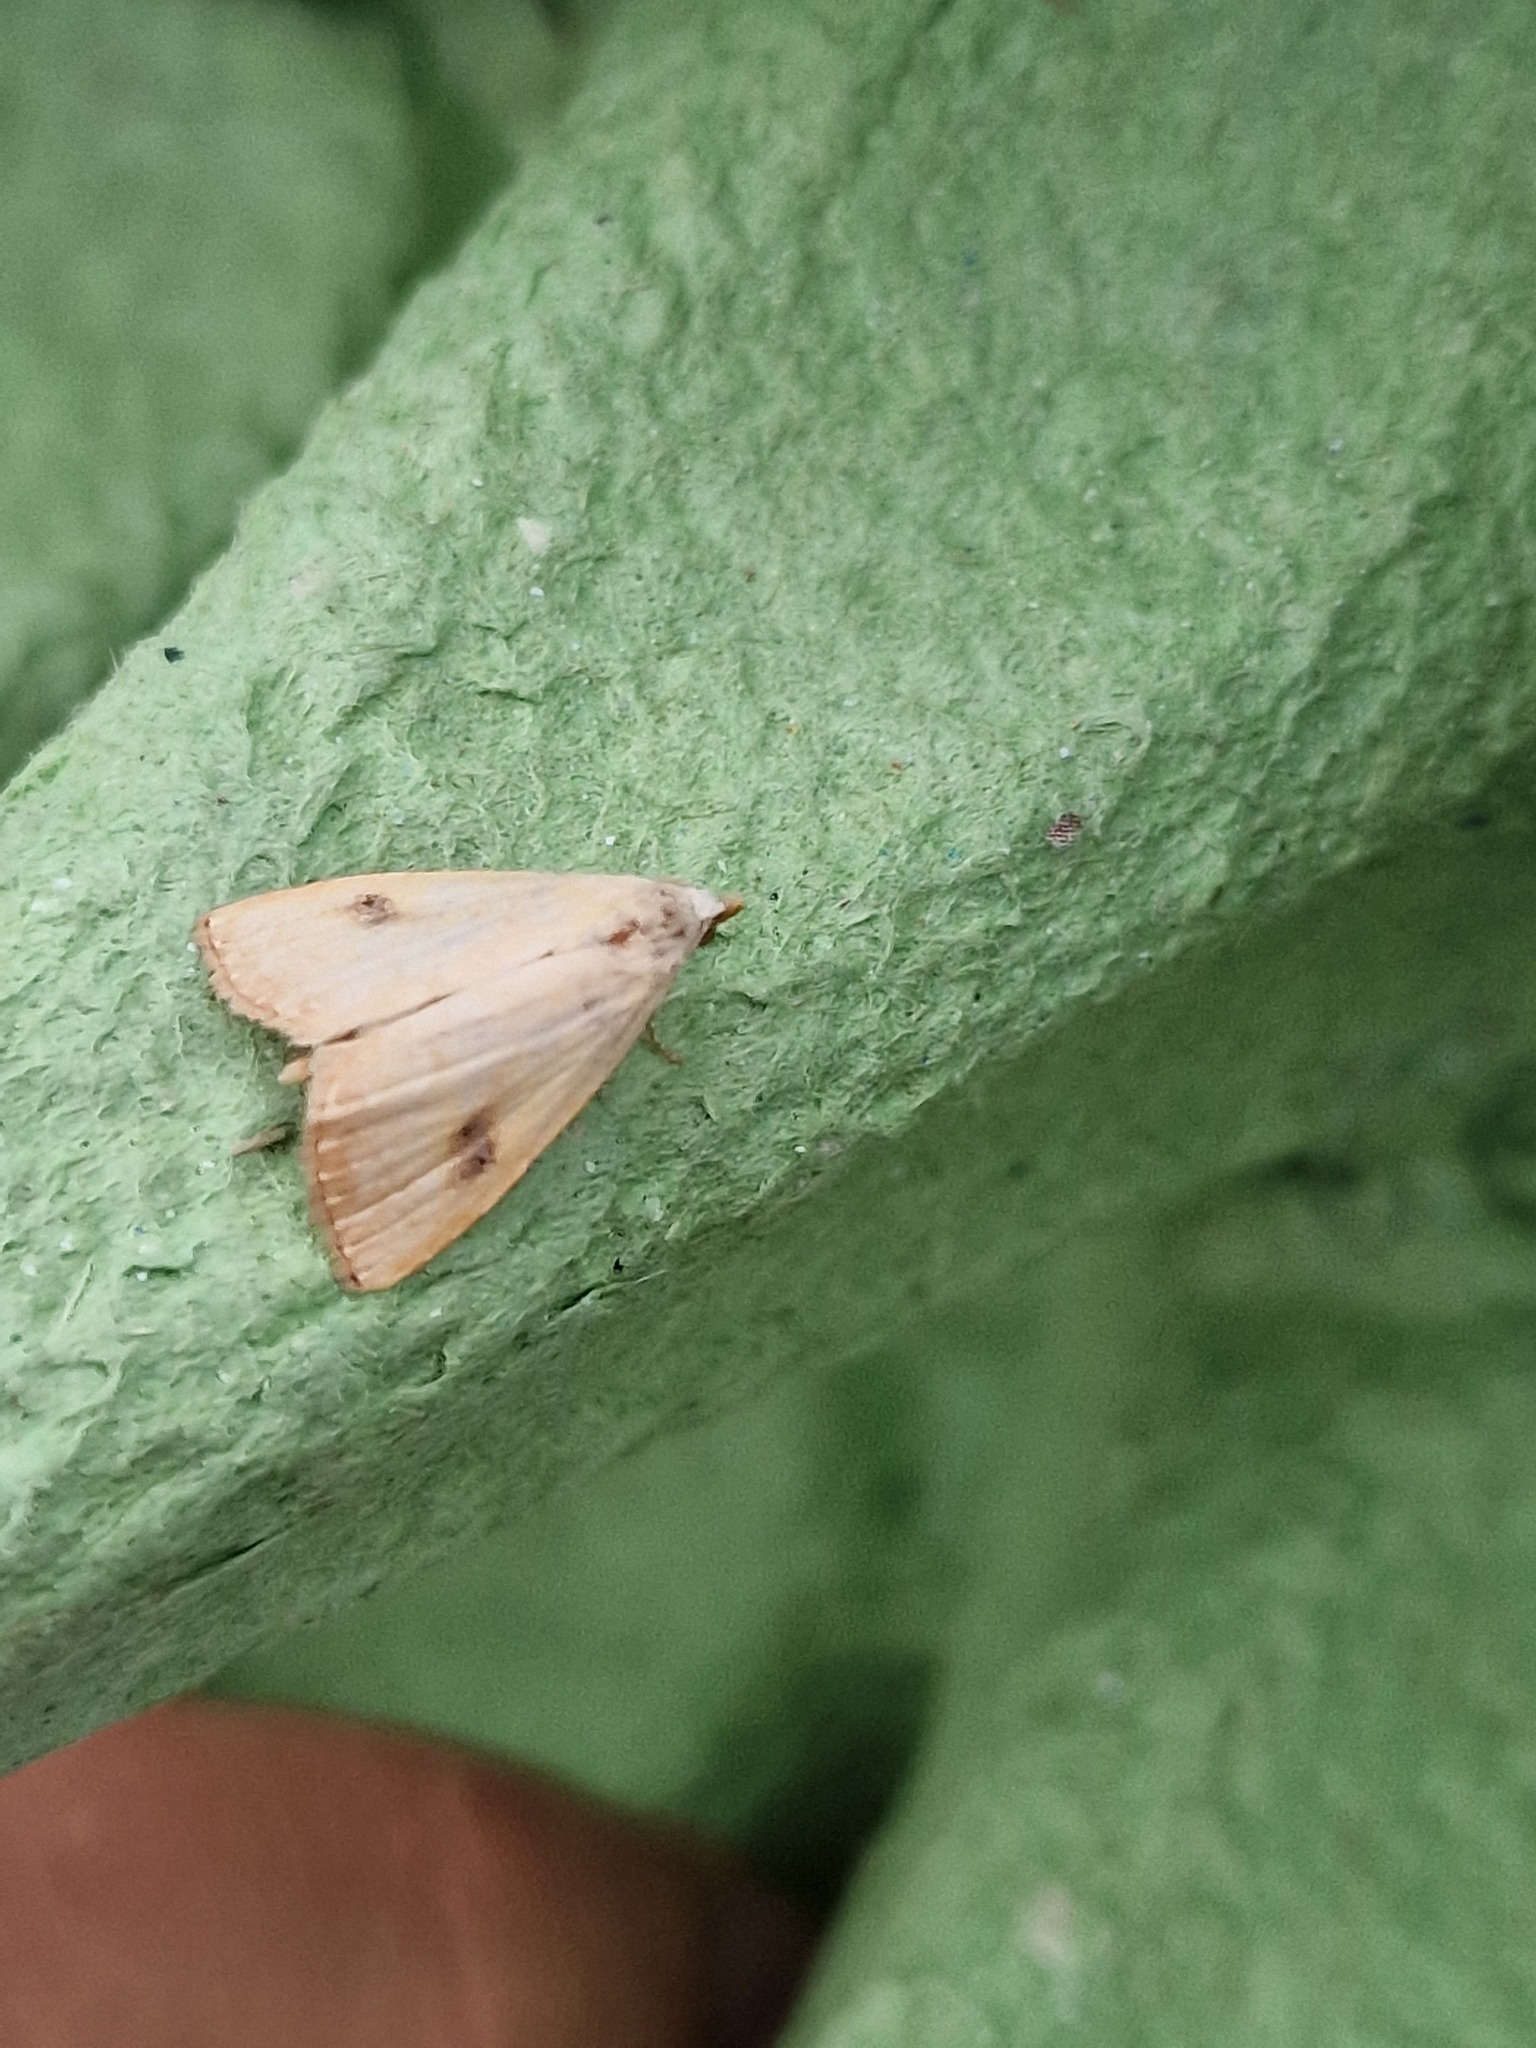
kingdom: Animalia
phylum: Arthropoda
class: Insecta
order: Lepidoptera
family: Erebidae
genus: Rivula
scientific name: Rivula sericealis
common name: Straw dot
